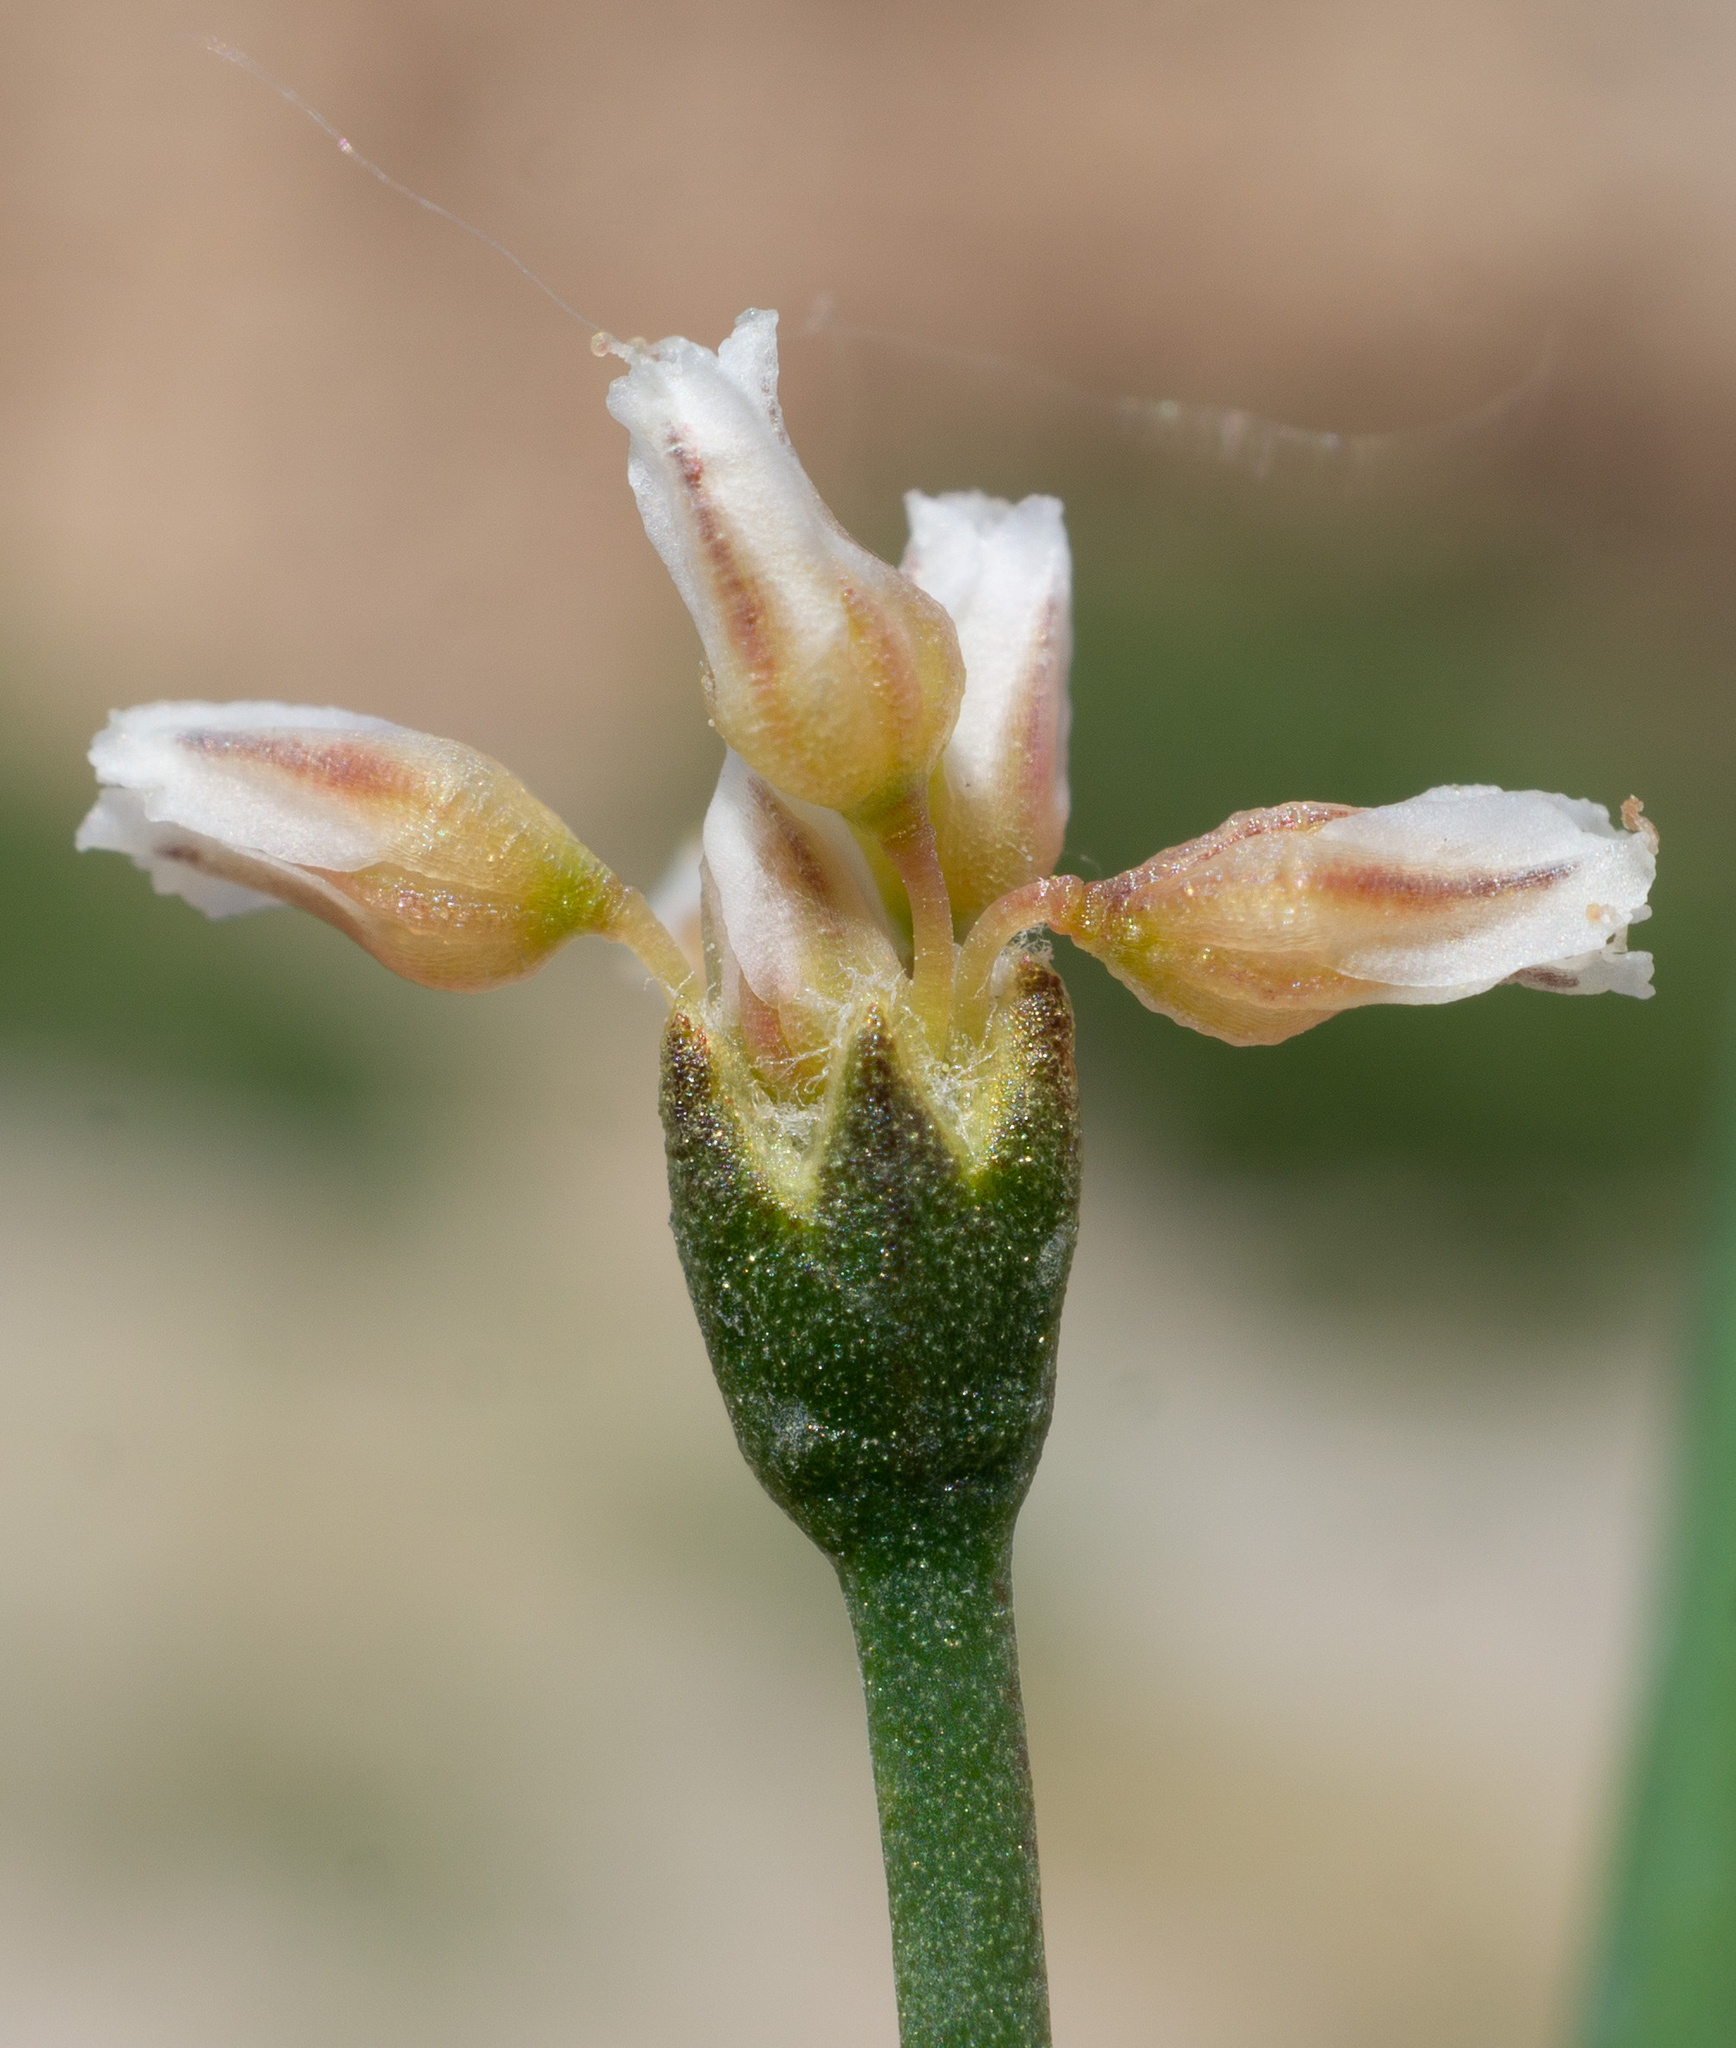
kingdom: Plantae
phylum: Tracheophyta
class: Magnoliopsida
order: Caryophyllales
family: Polygonaceae
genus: Eriogonum
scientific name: Eriogonum ammophilum
